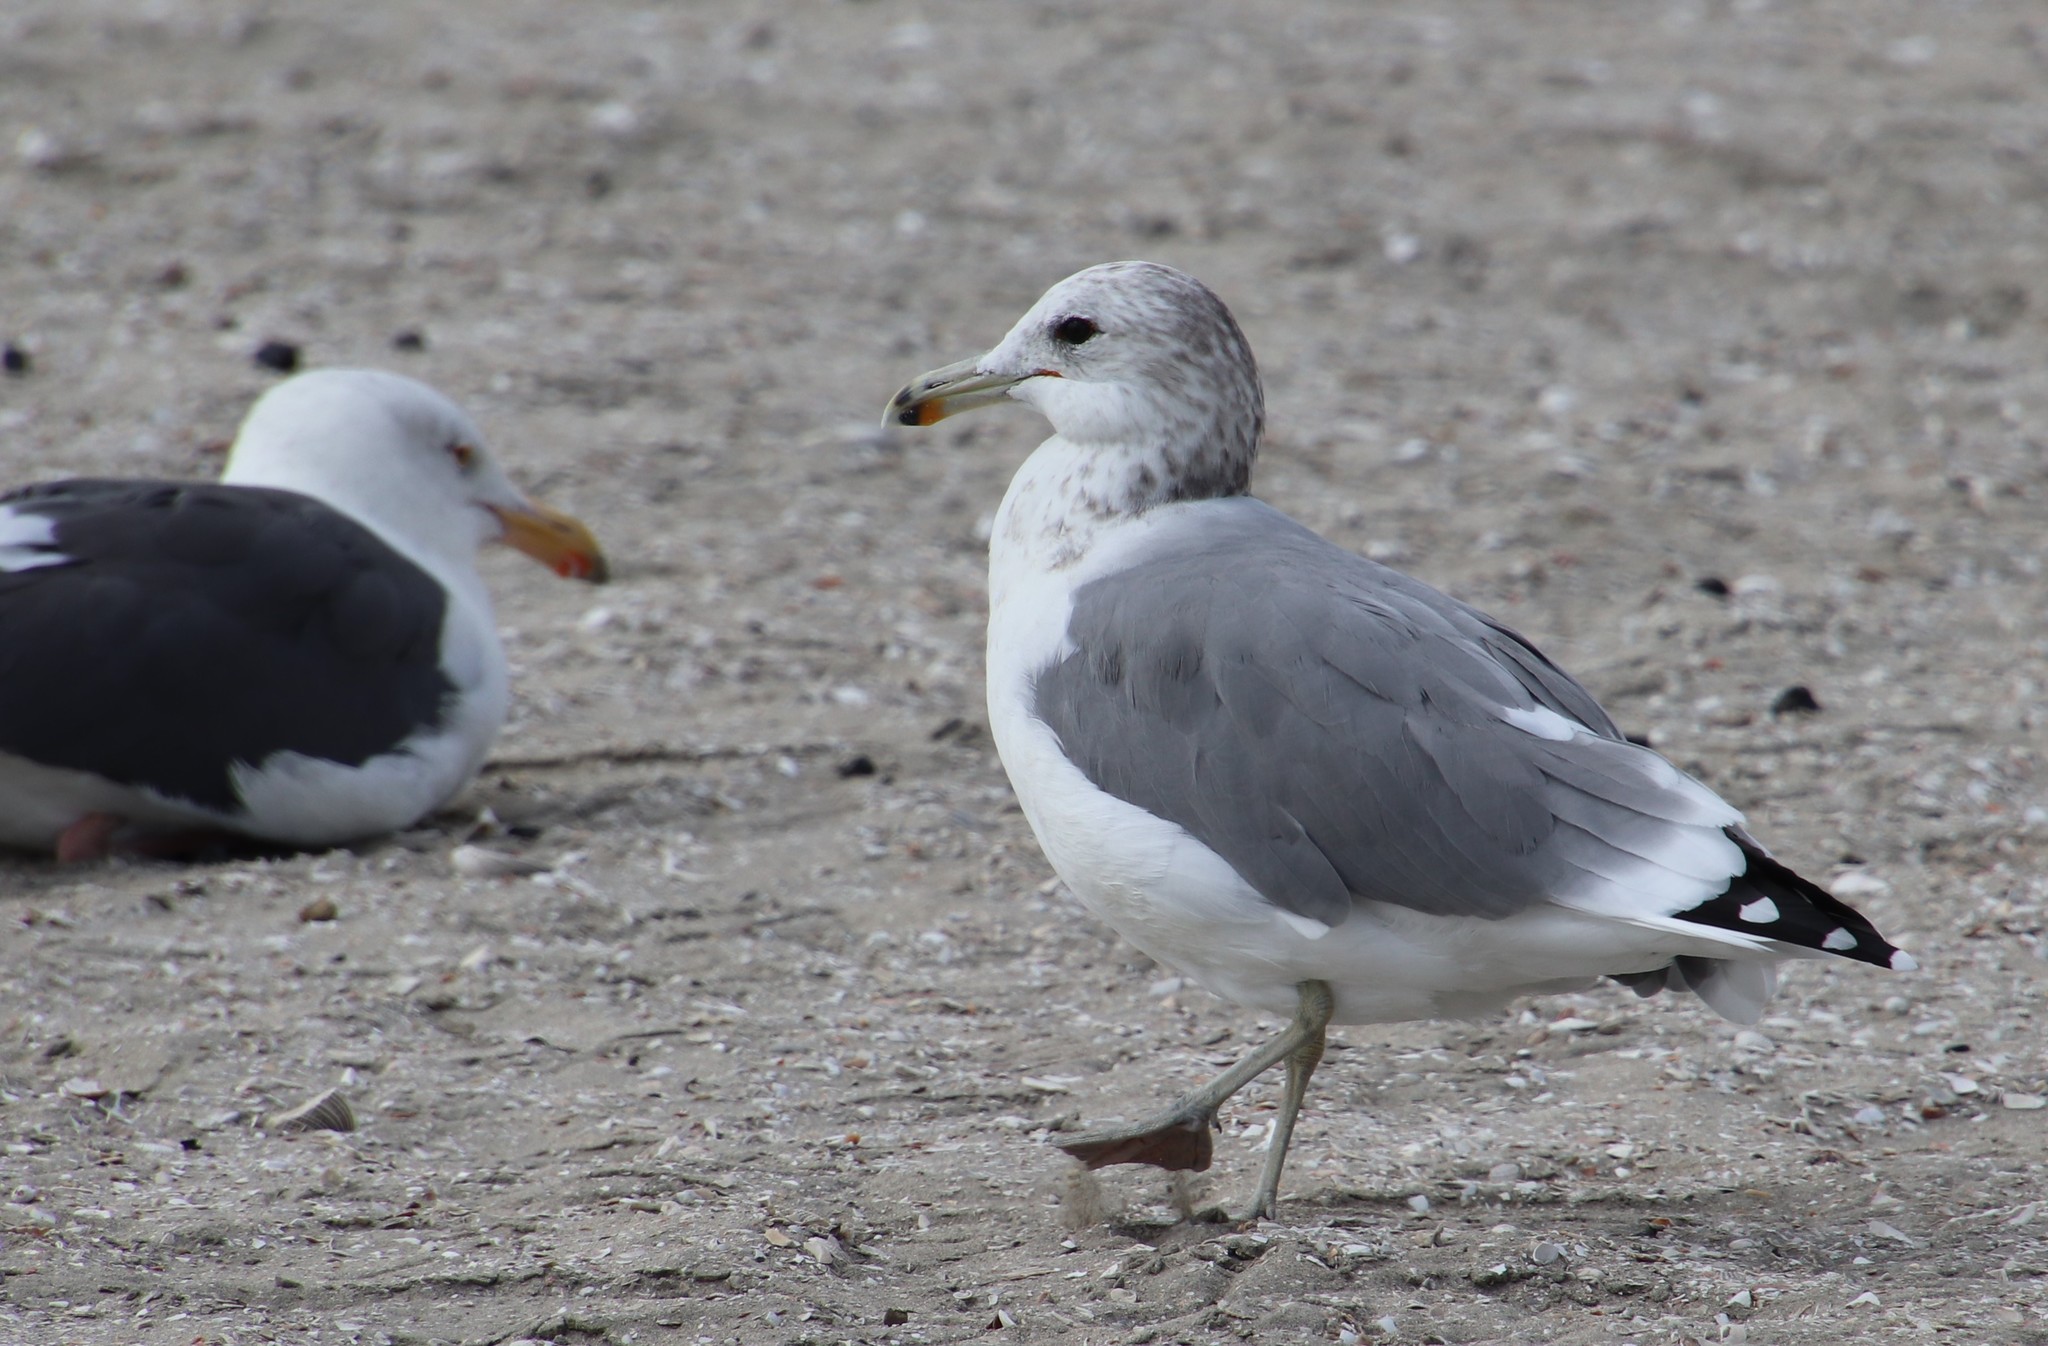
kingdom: Animalia
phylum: Chordata
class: Aves
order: Charadriiformes
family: Laridae
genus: Larus
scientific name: Larus californicus
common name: California gull
